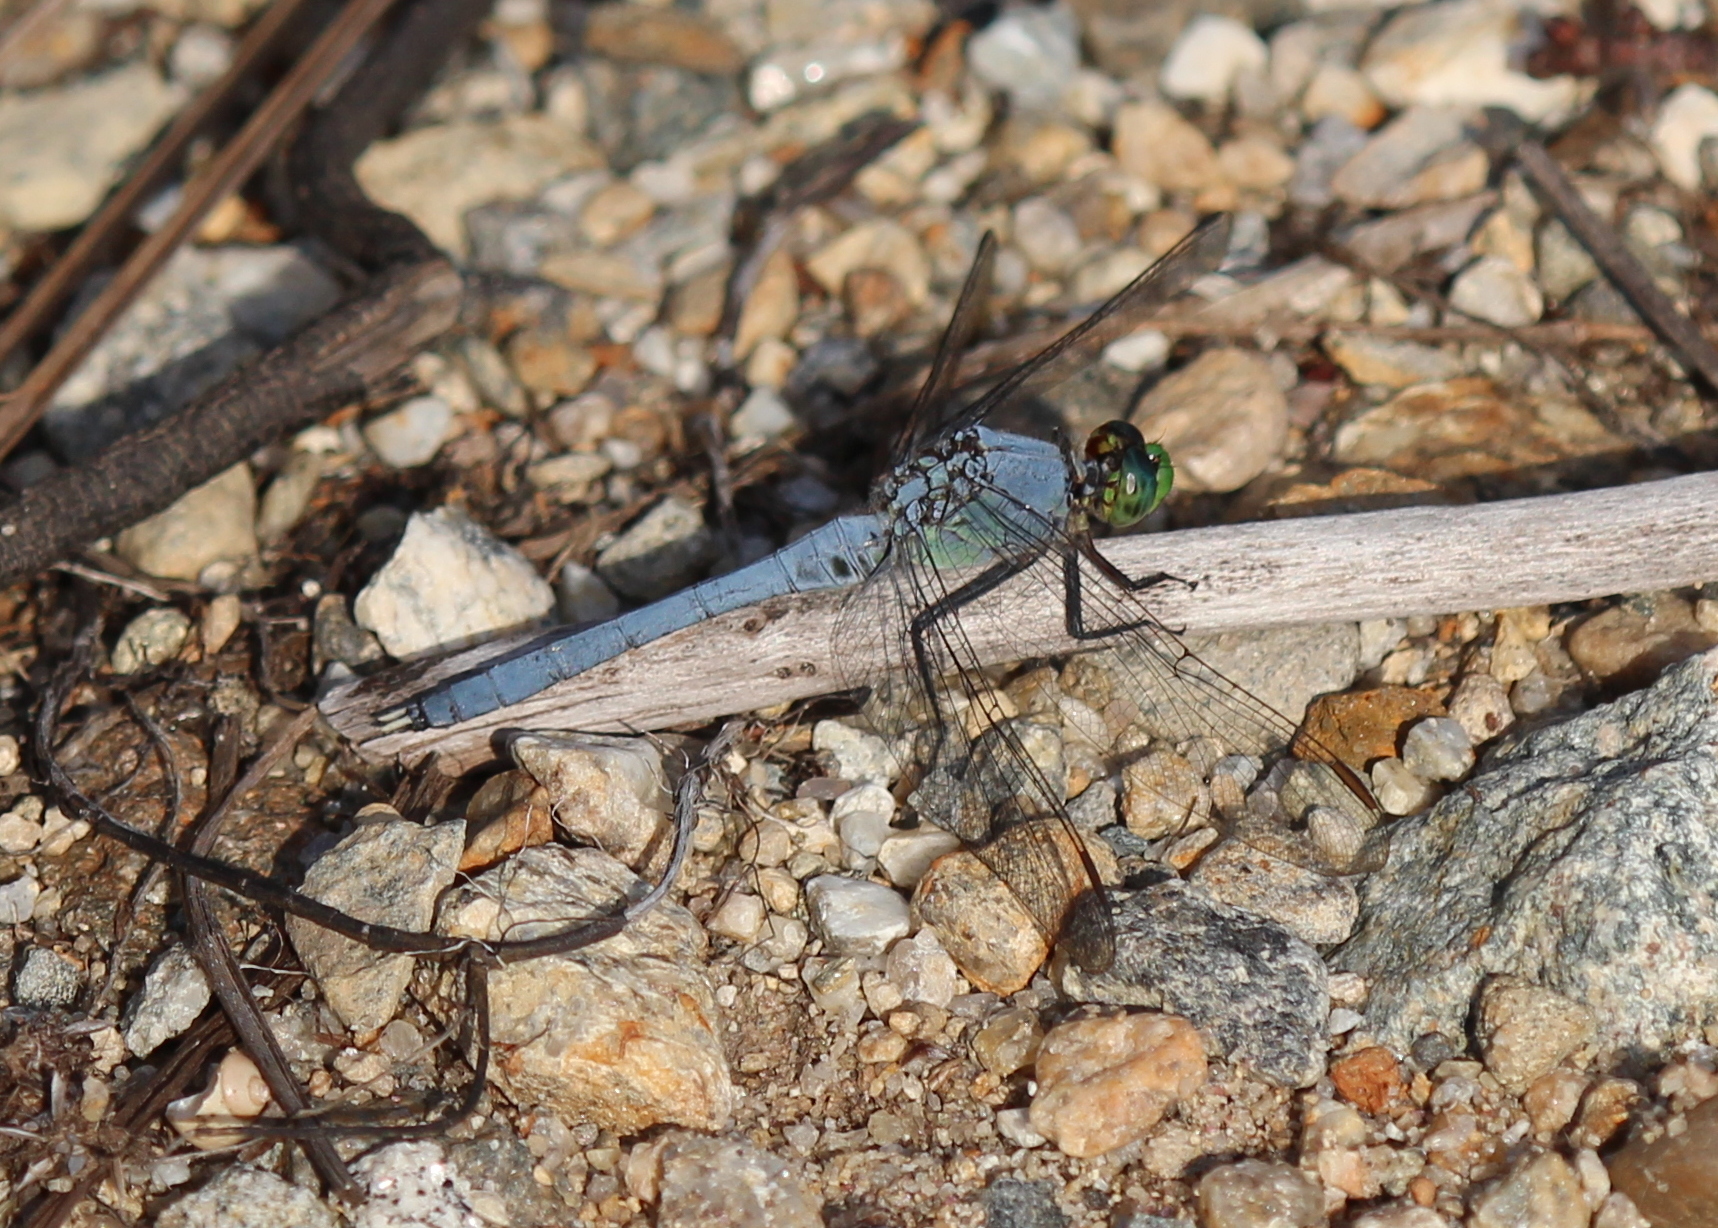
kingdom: Animalia
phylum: Arthropoda
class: Insecta
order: Odonata
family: Libellulidae
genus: Erythemis
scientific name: Erythemis simplicicollis
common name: Eastern pondhawk
